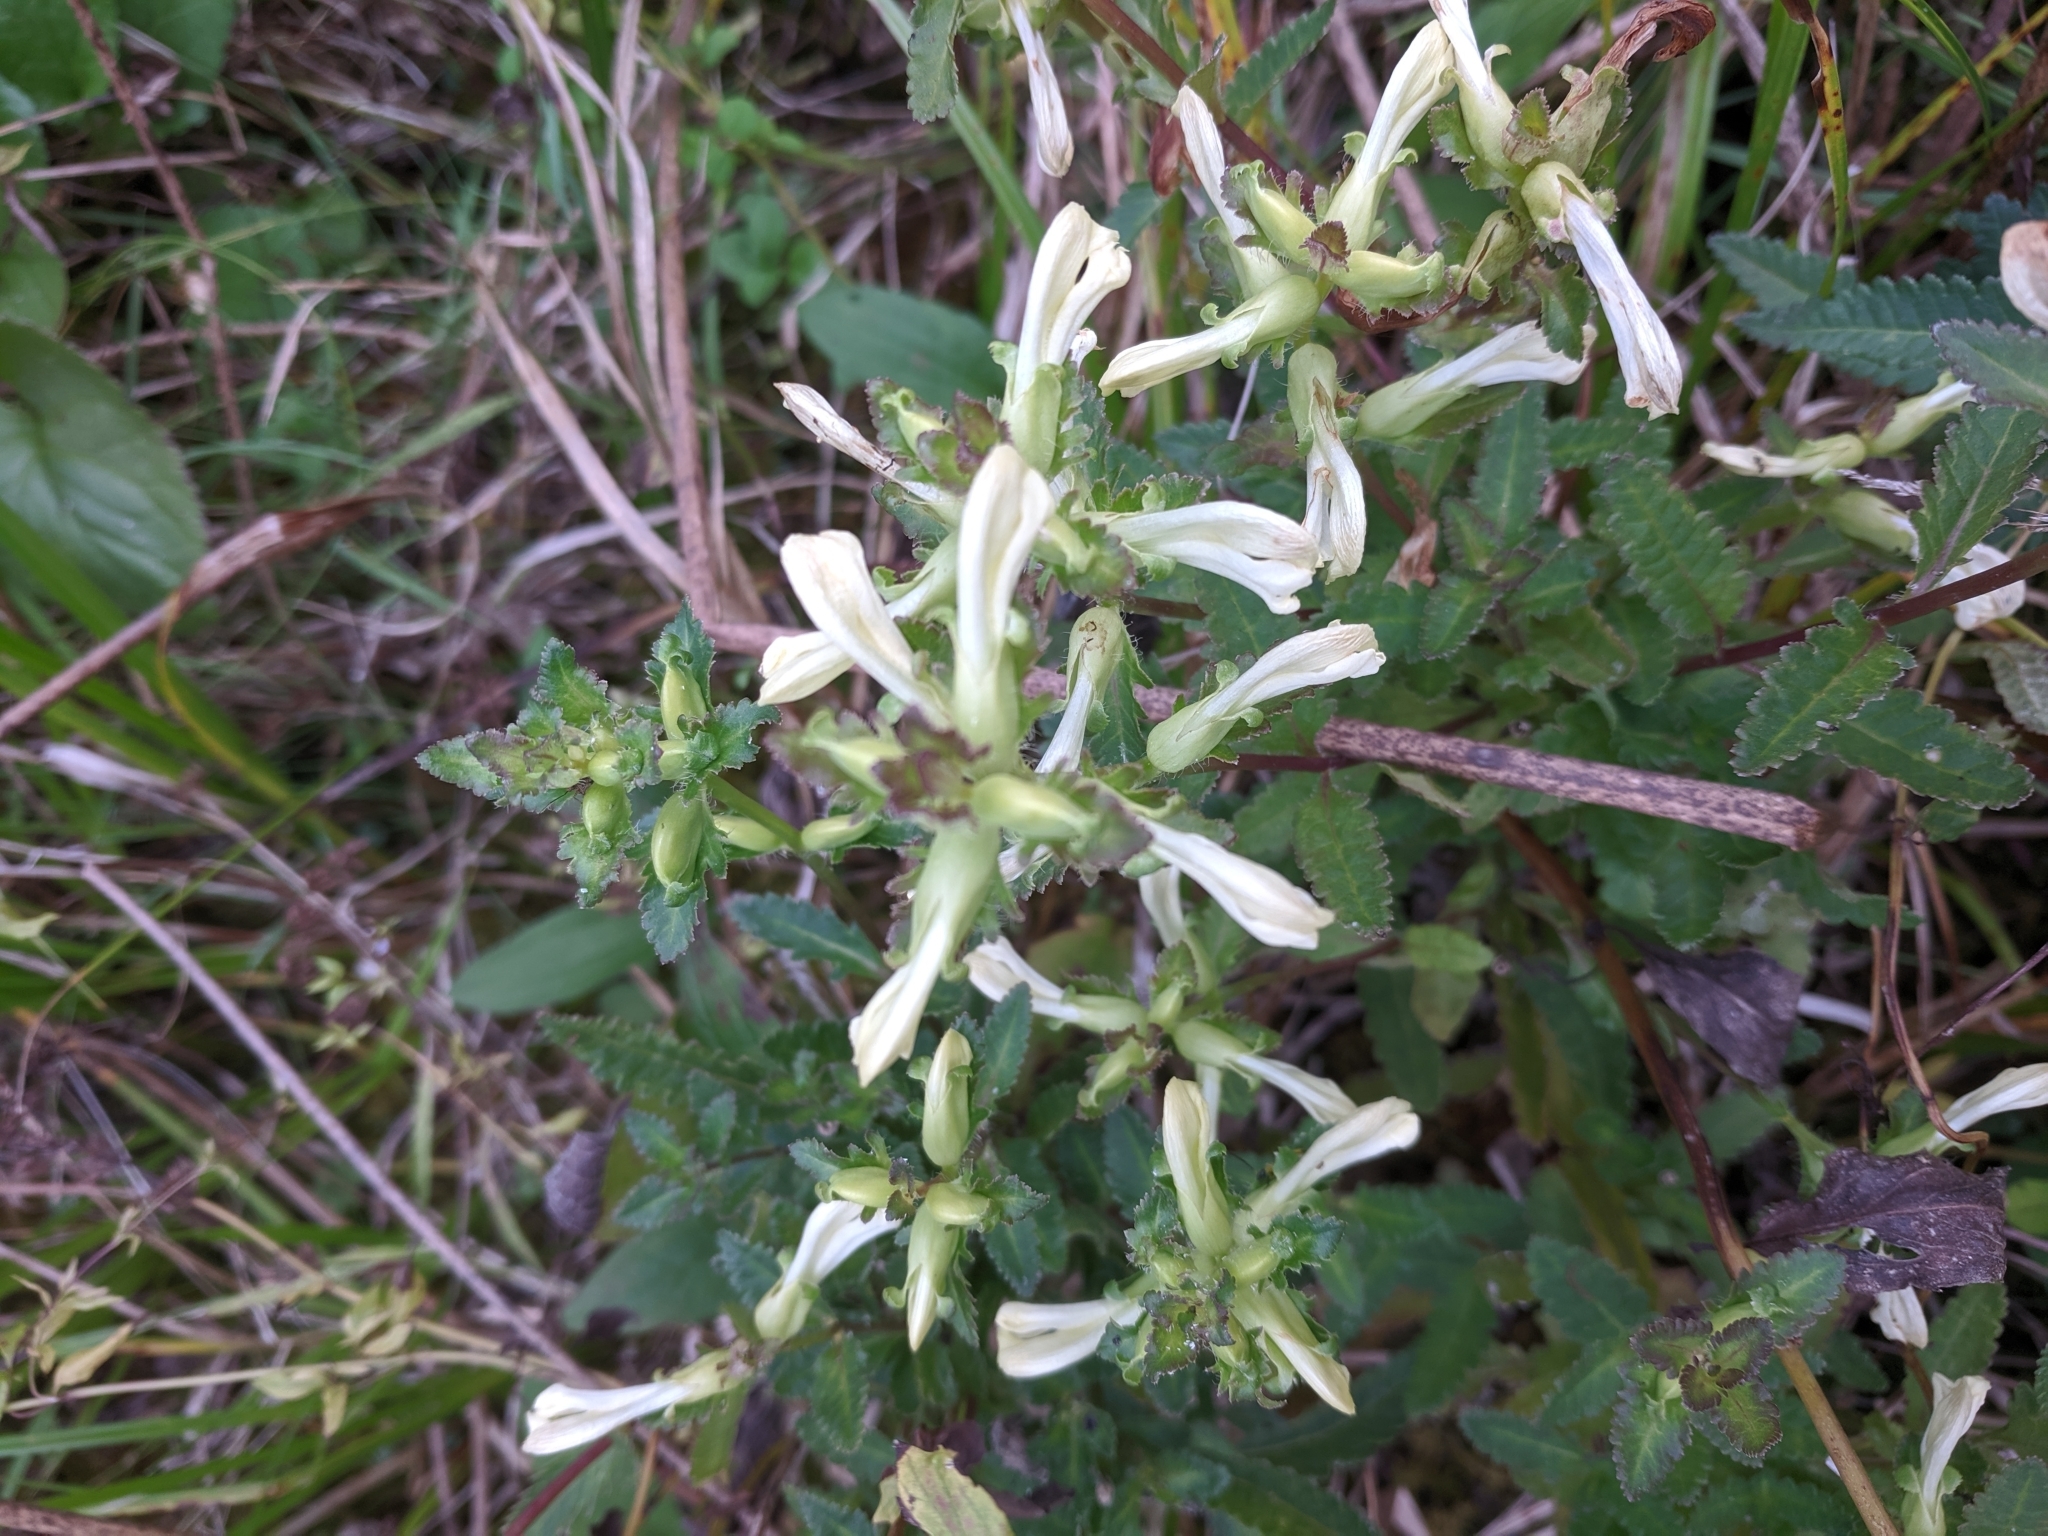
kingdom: Plantae
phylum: Tracheophyta
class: Magnoliopsida
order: Lamiales
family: Orobanchaceae
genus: Pedicularis
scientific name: Pedicularis lanceolata
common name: Swamp lousewort
